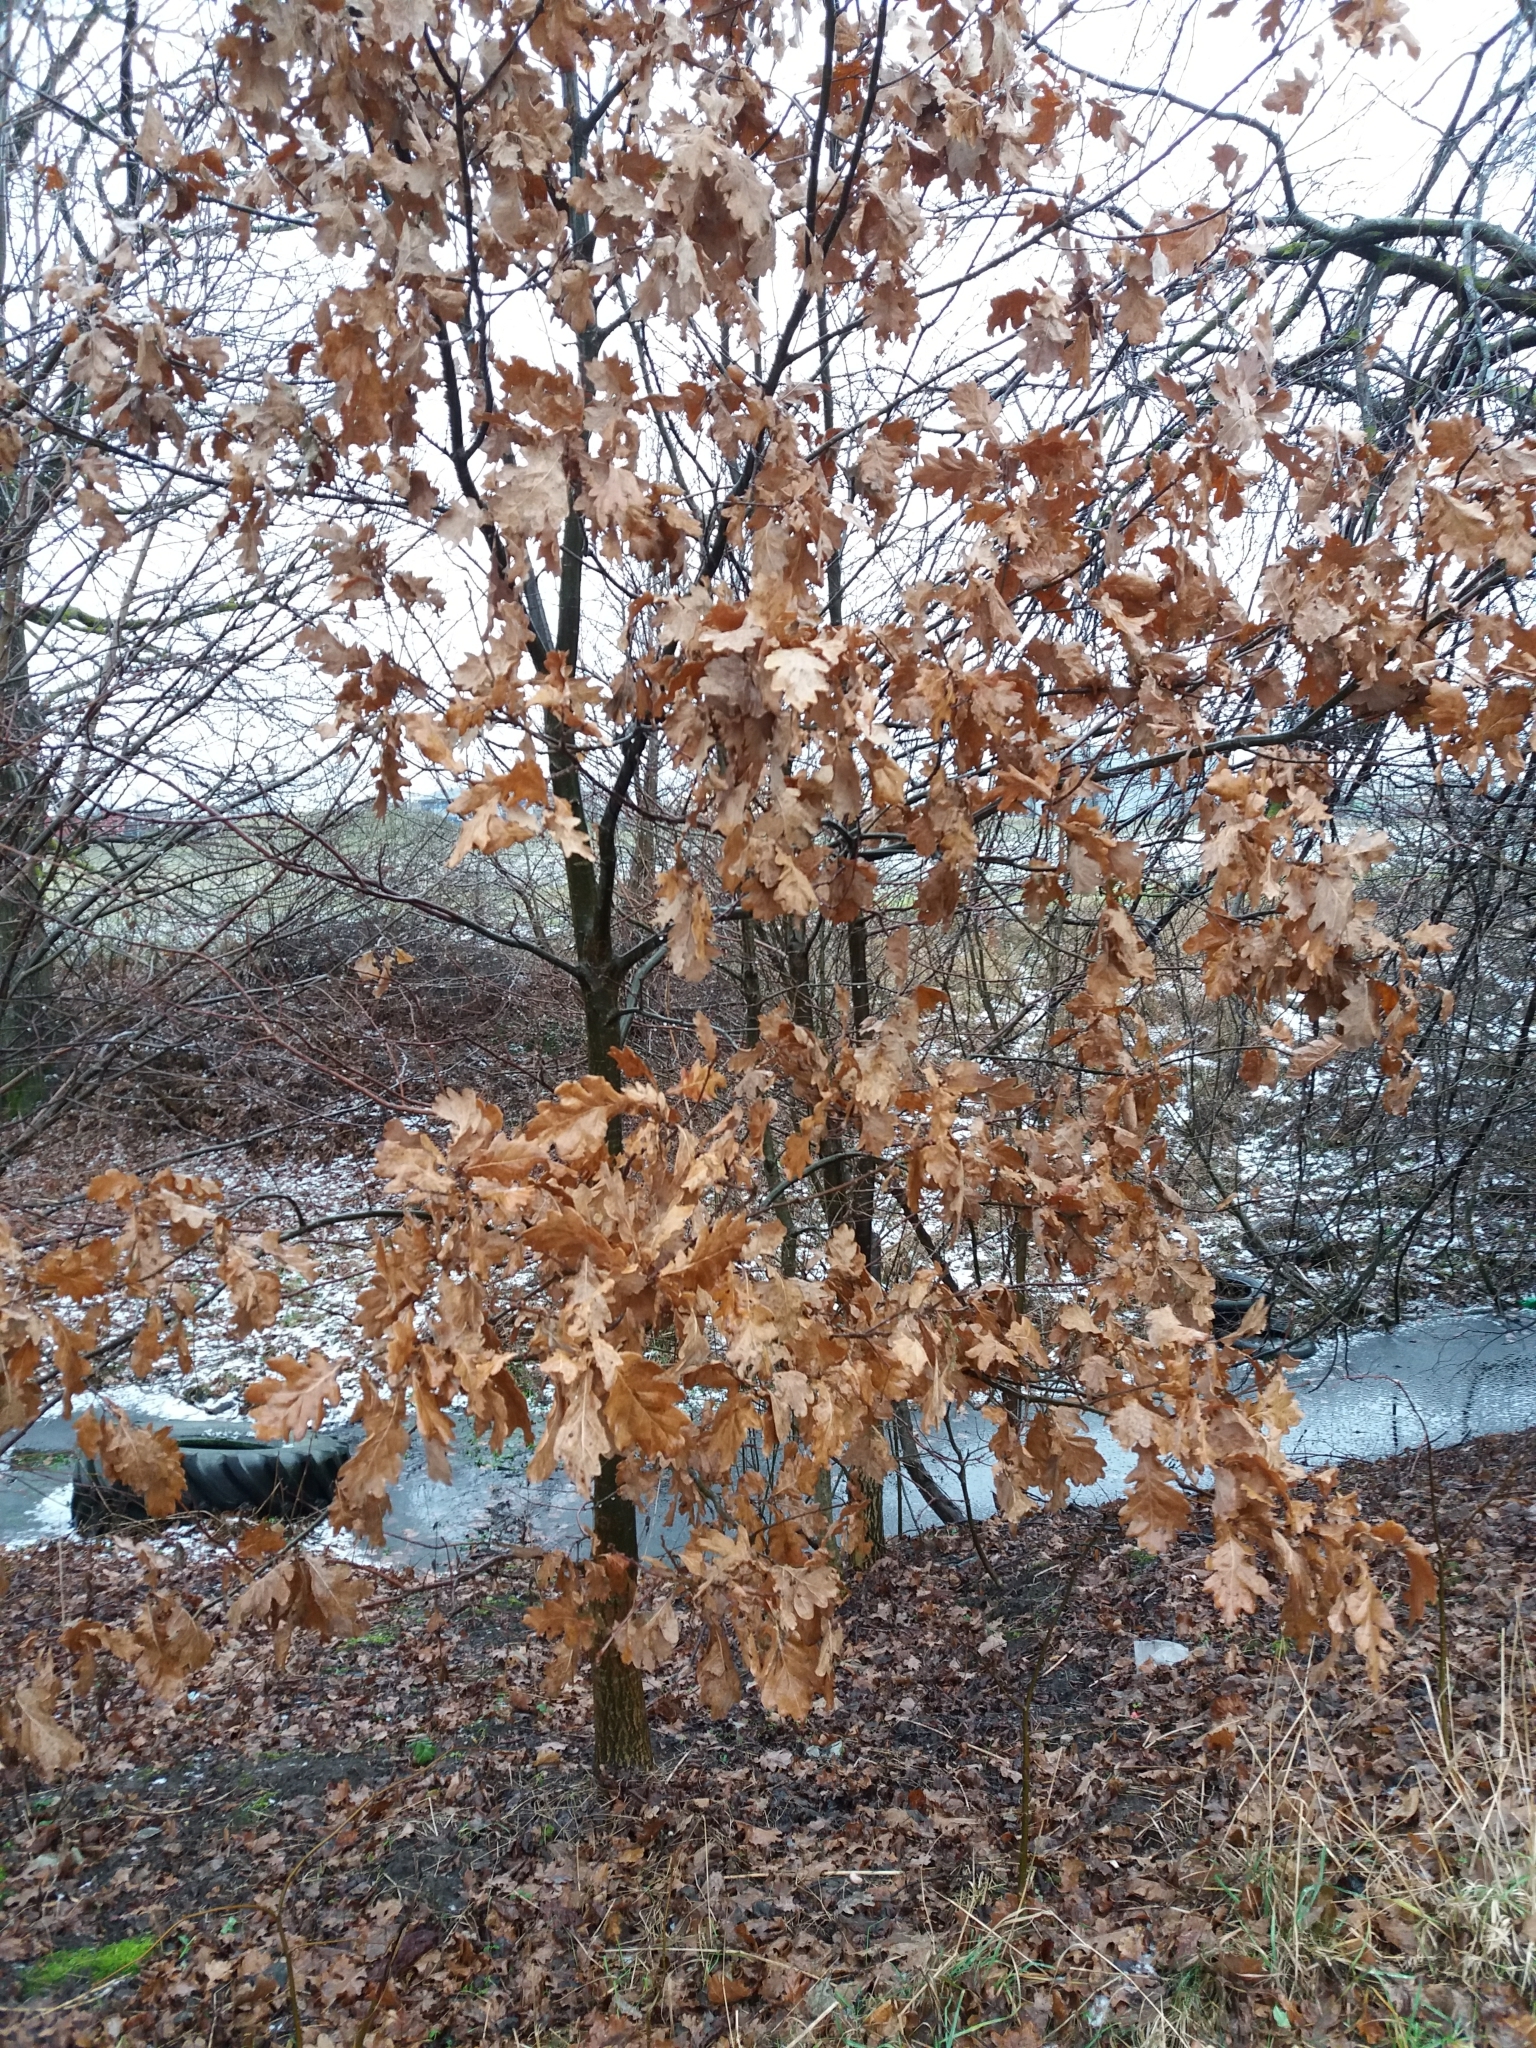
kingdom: Plantae
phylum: Tracheophyta
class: Magnoliopsida
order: Fagales
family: Fagaceae
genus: Quercus
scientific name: Quercus robur
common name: Pedunculate oak
